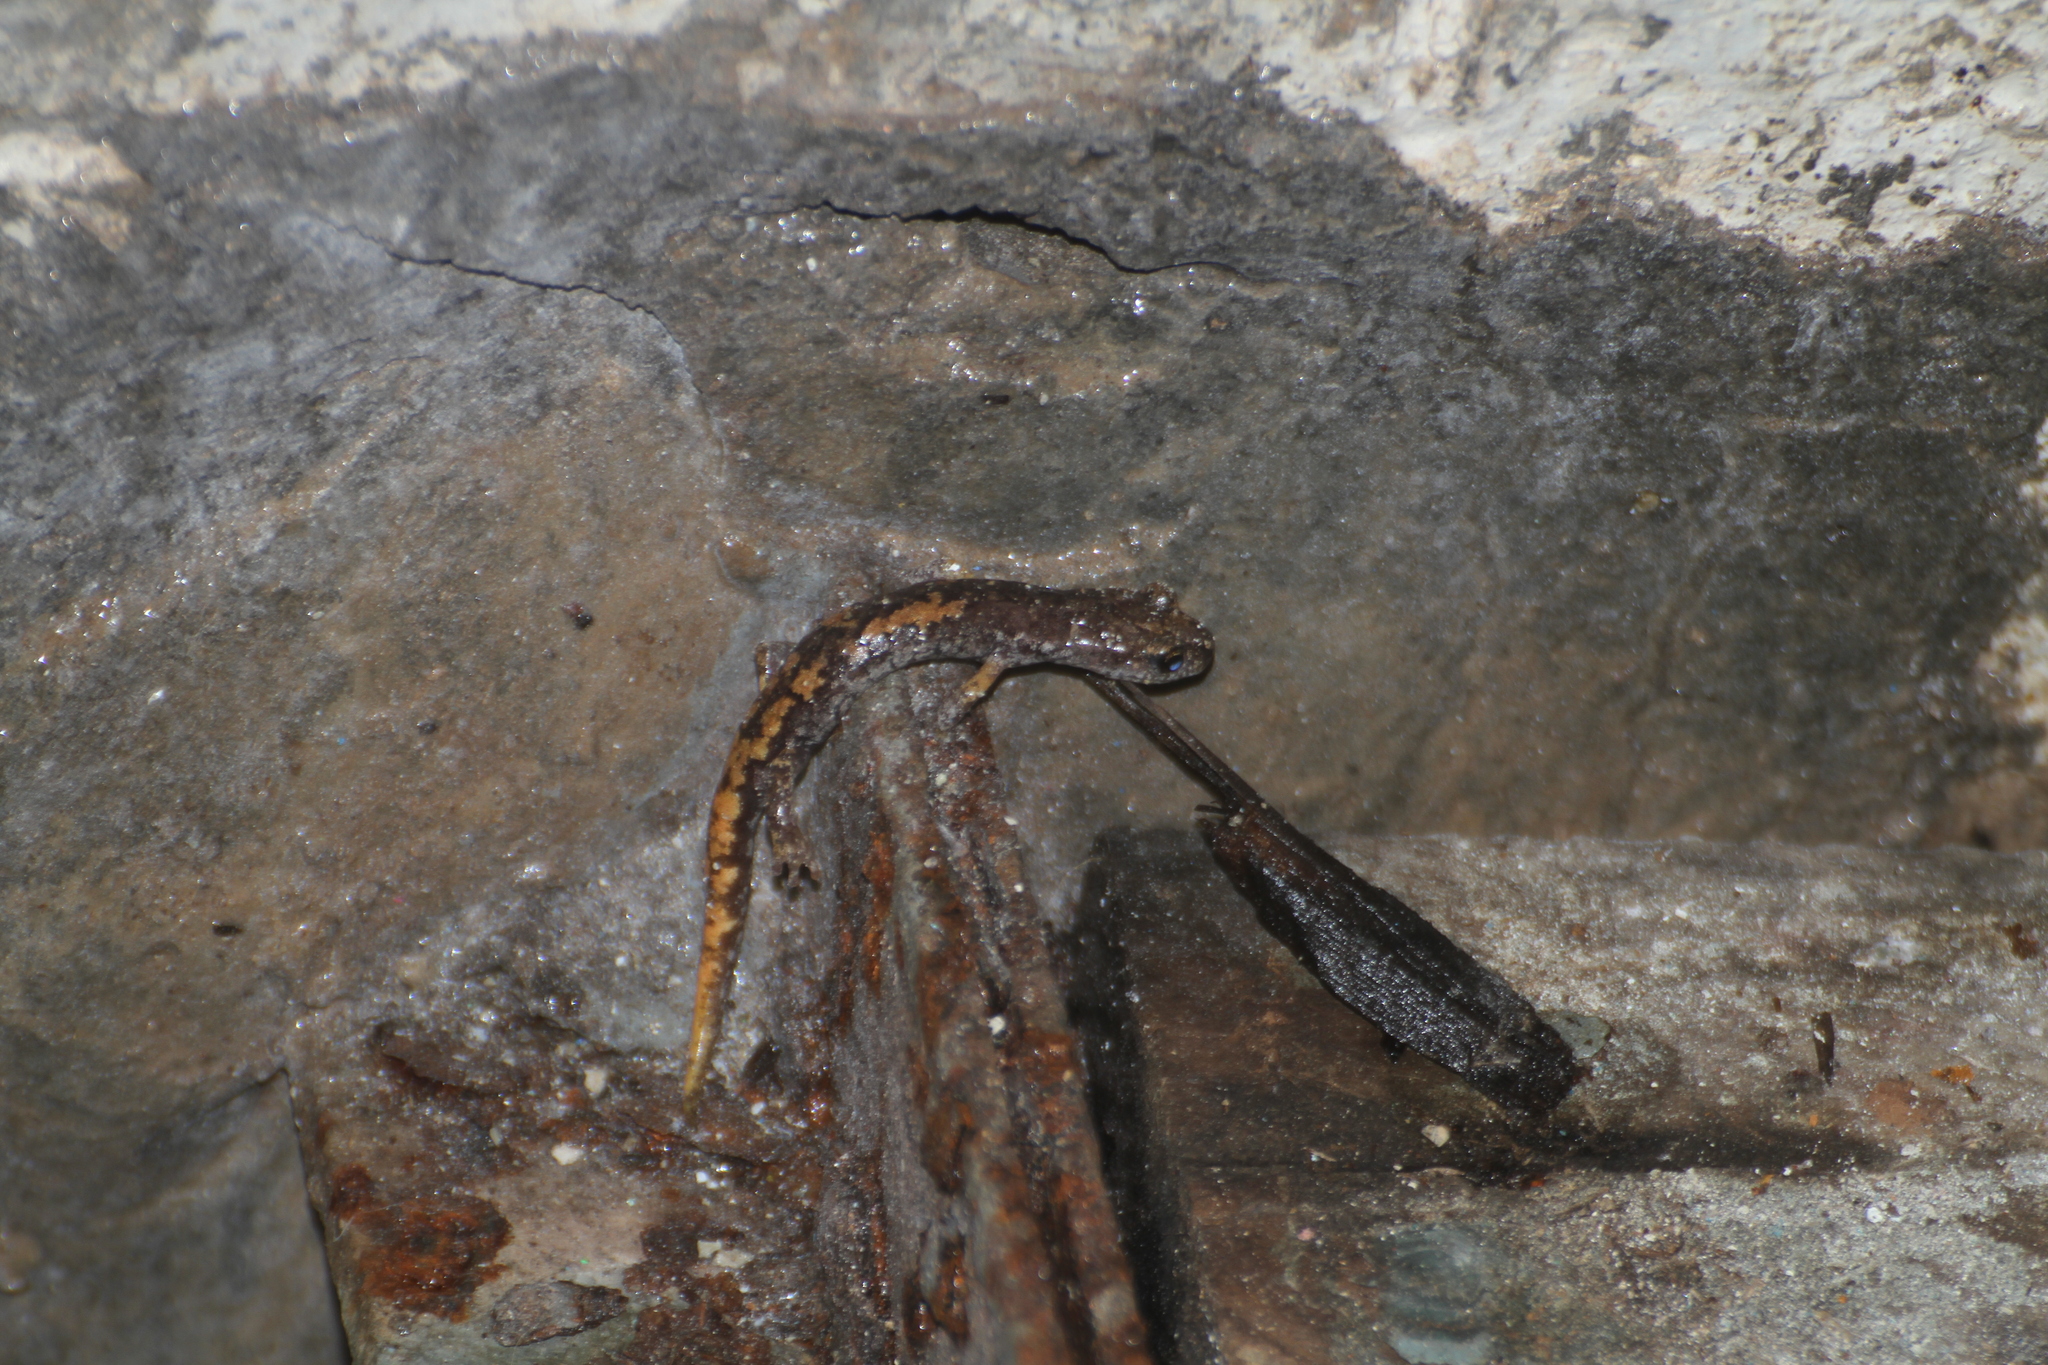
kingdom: Animalia
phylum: Chordata
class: Amphibia
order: Caudata
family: Plethodontidae
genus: Speleomantes
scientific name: Speleomantes strinatii
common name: French cave salamander
